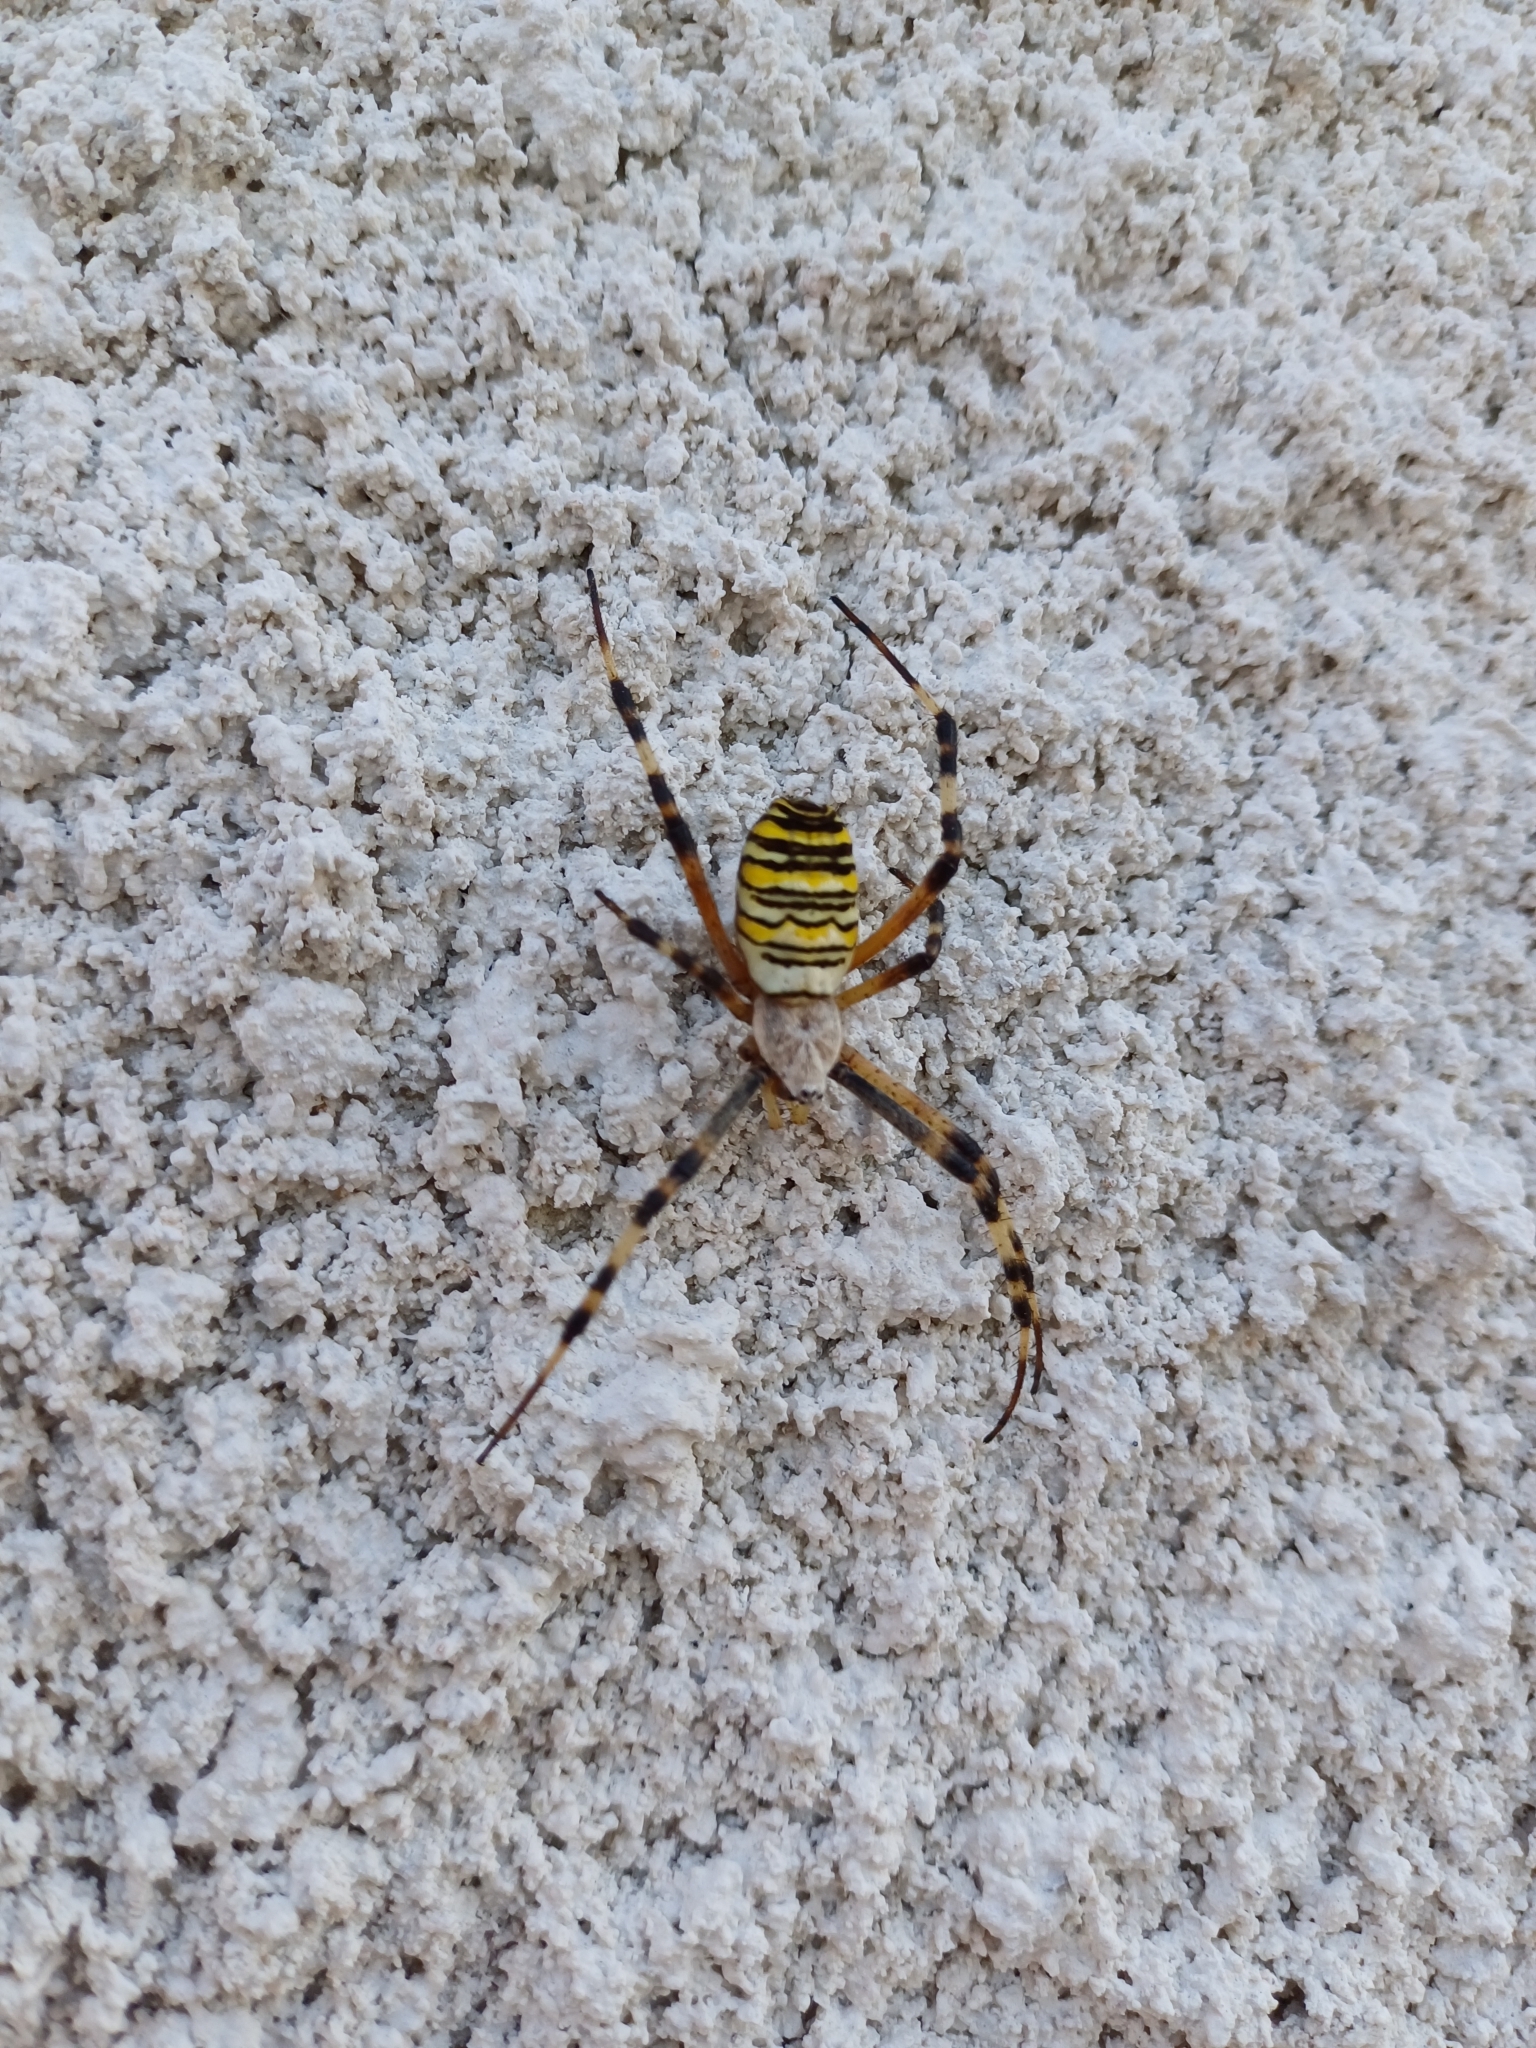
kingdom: Animalia
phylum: Arthropoda
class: Arachnida
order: Araneae
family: Araneidae
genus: Argiope
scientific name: Argiope bruennichi
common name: Wasp spider
